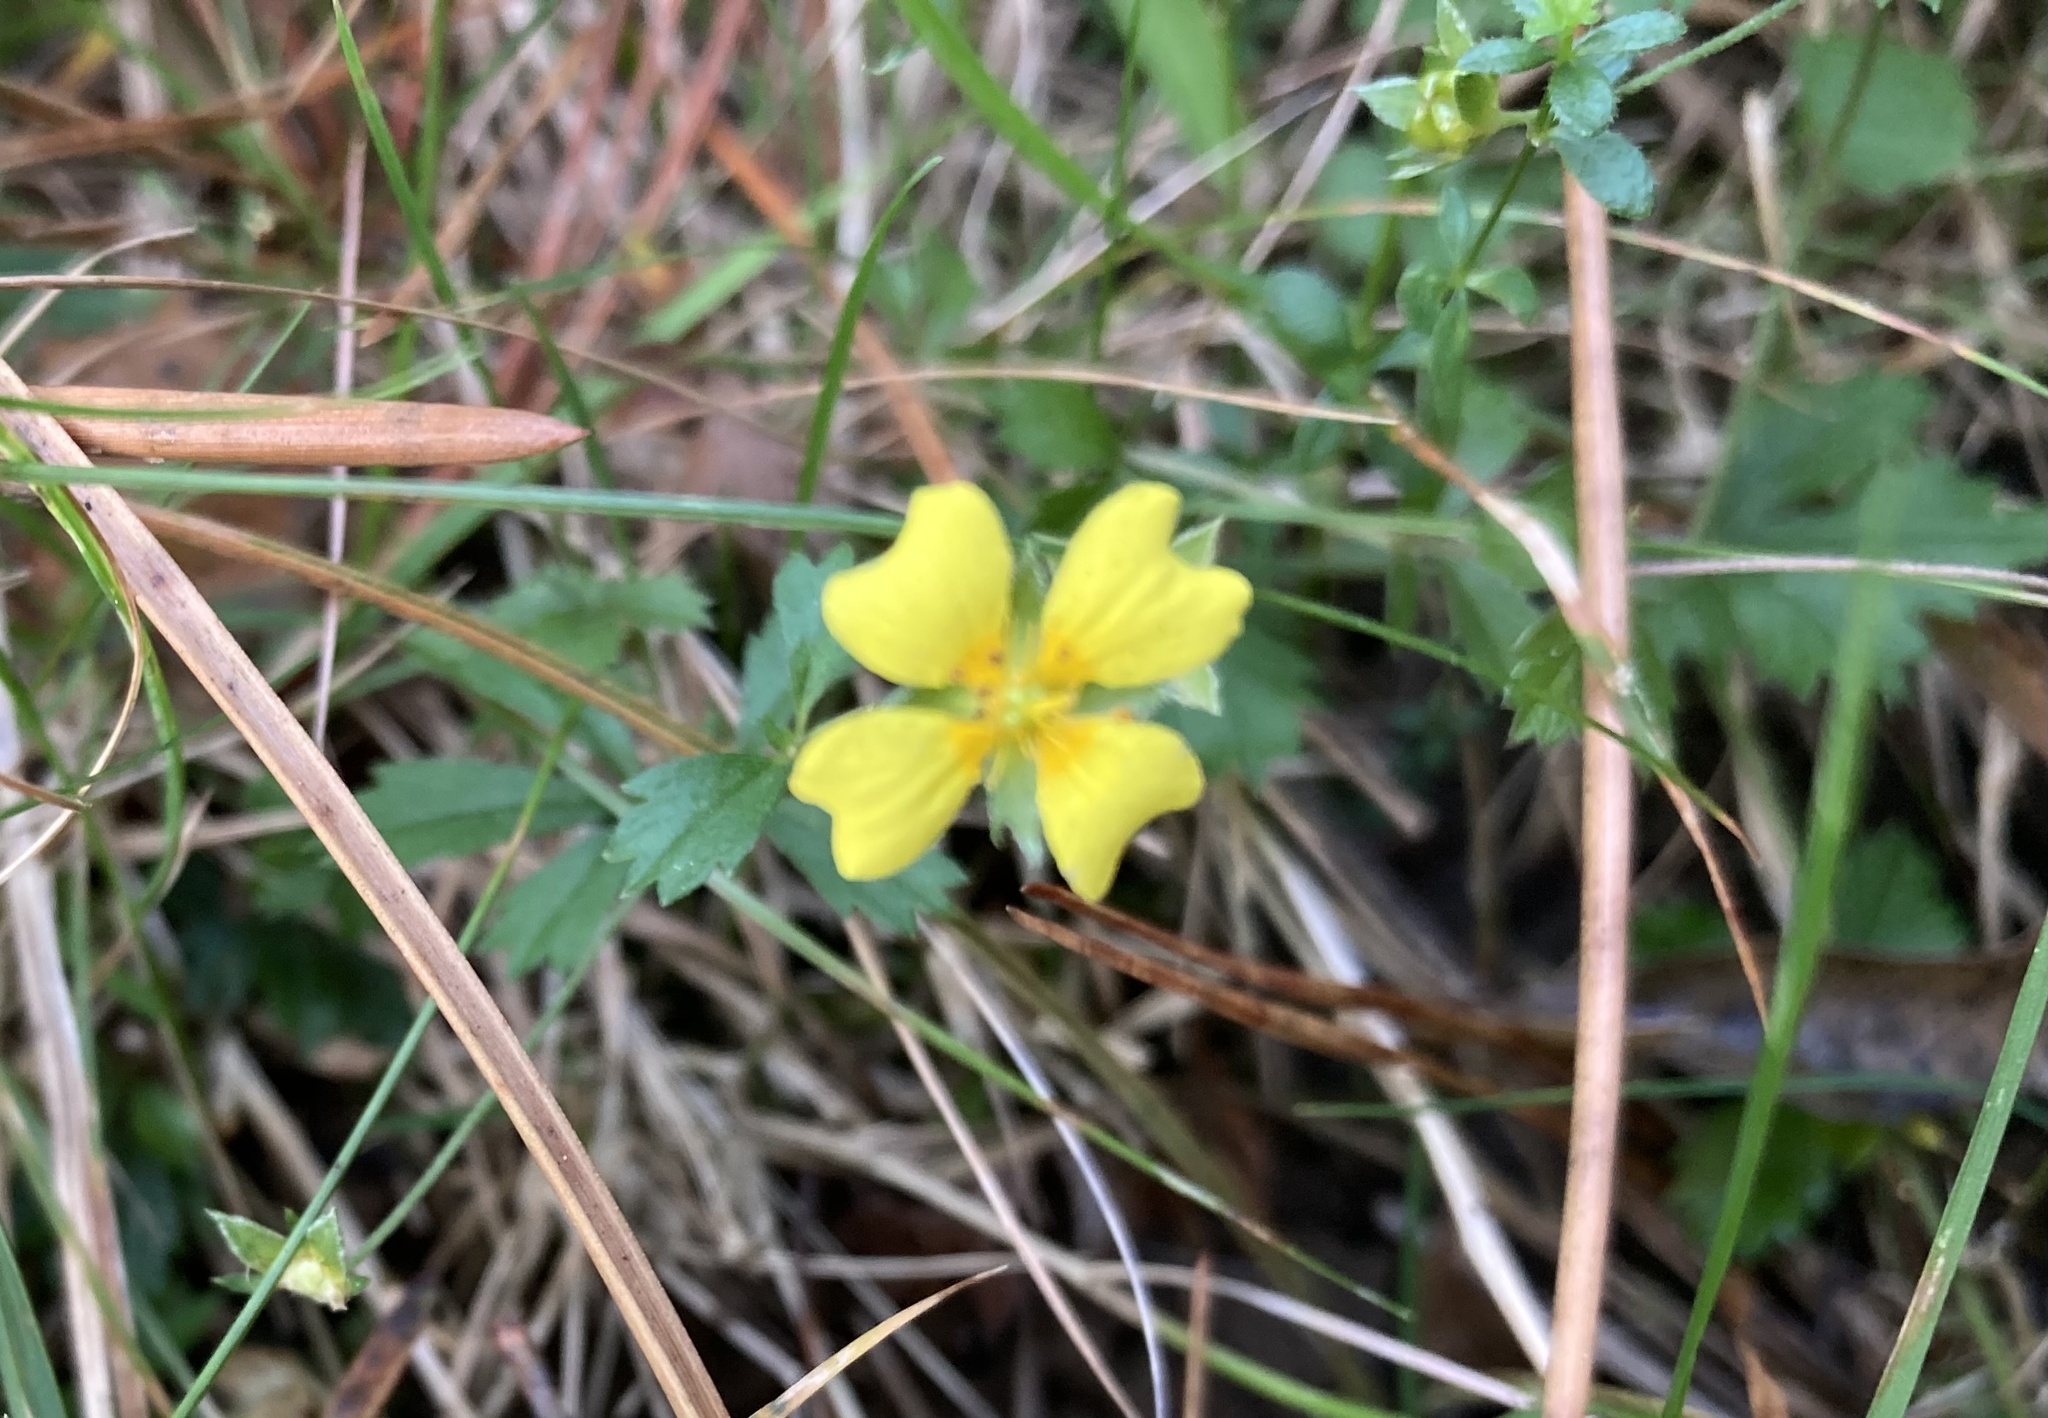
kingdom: Plantae
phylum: Tracheophyta
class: Magnoliopsida
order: Rosales
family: Rosaceae
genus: Potentilla
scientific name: Potentilla erecta
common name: Tormentil
